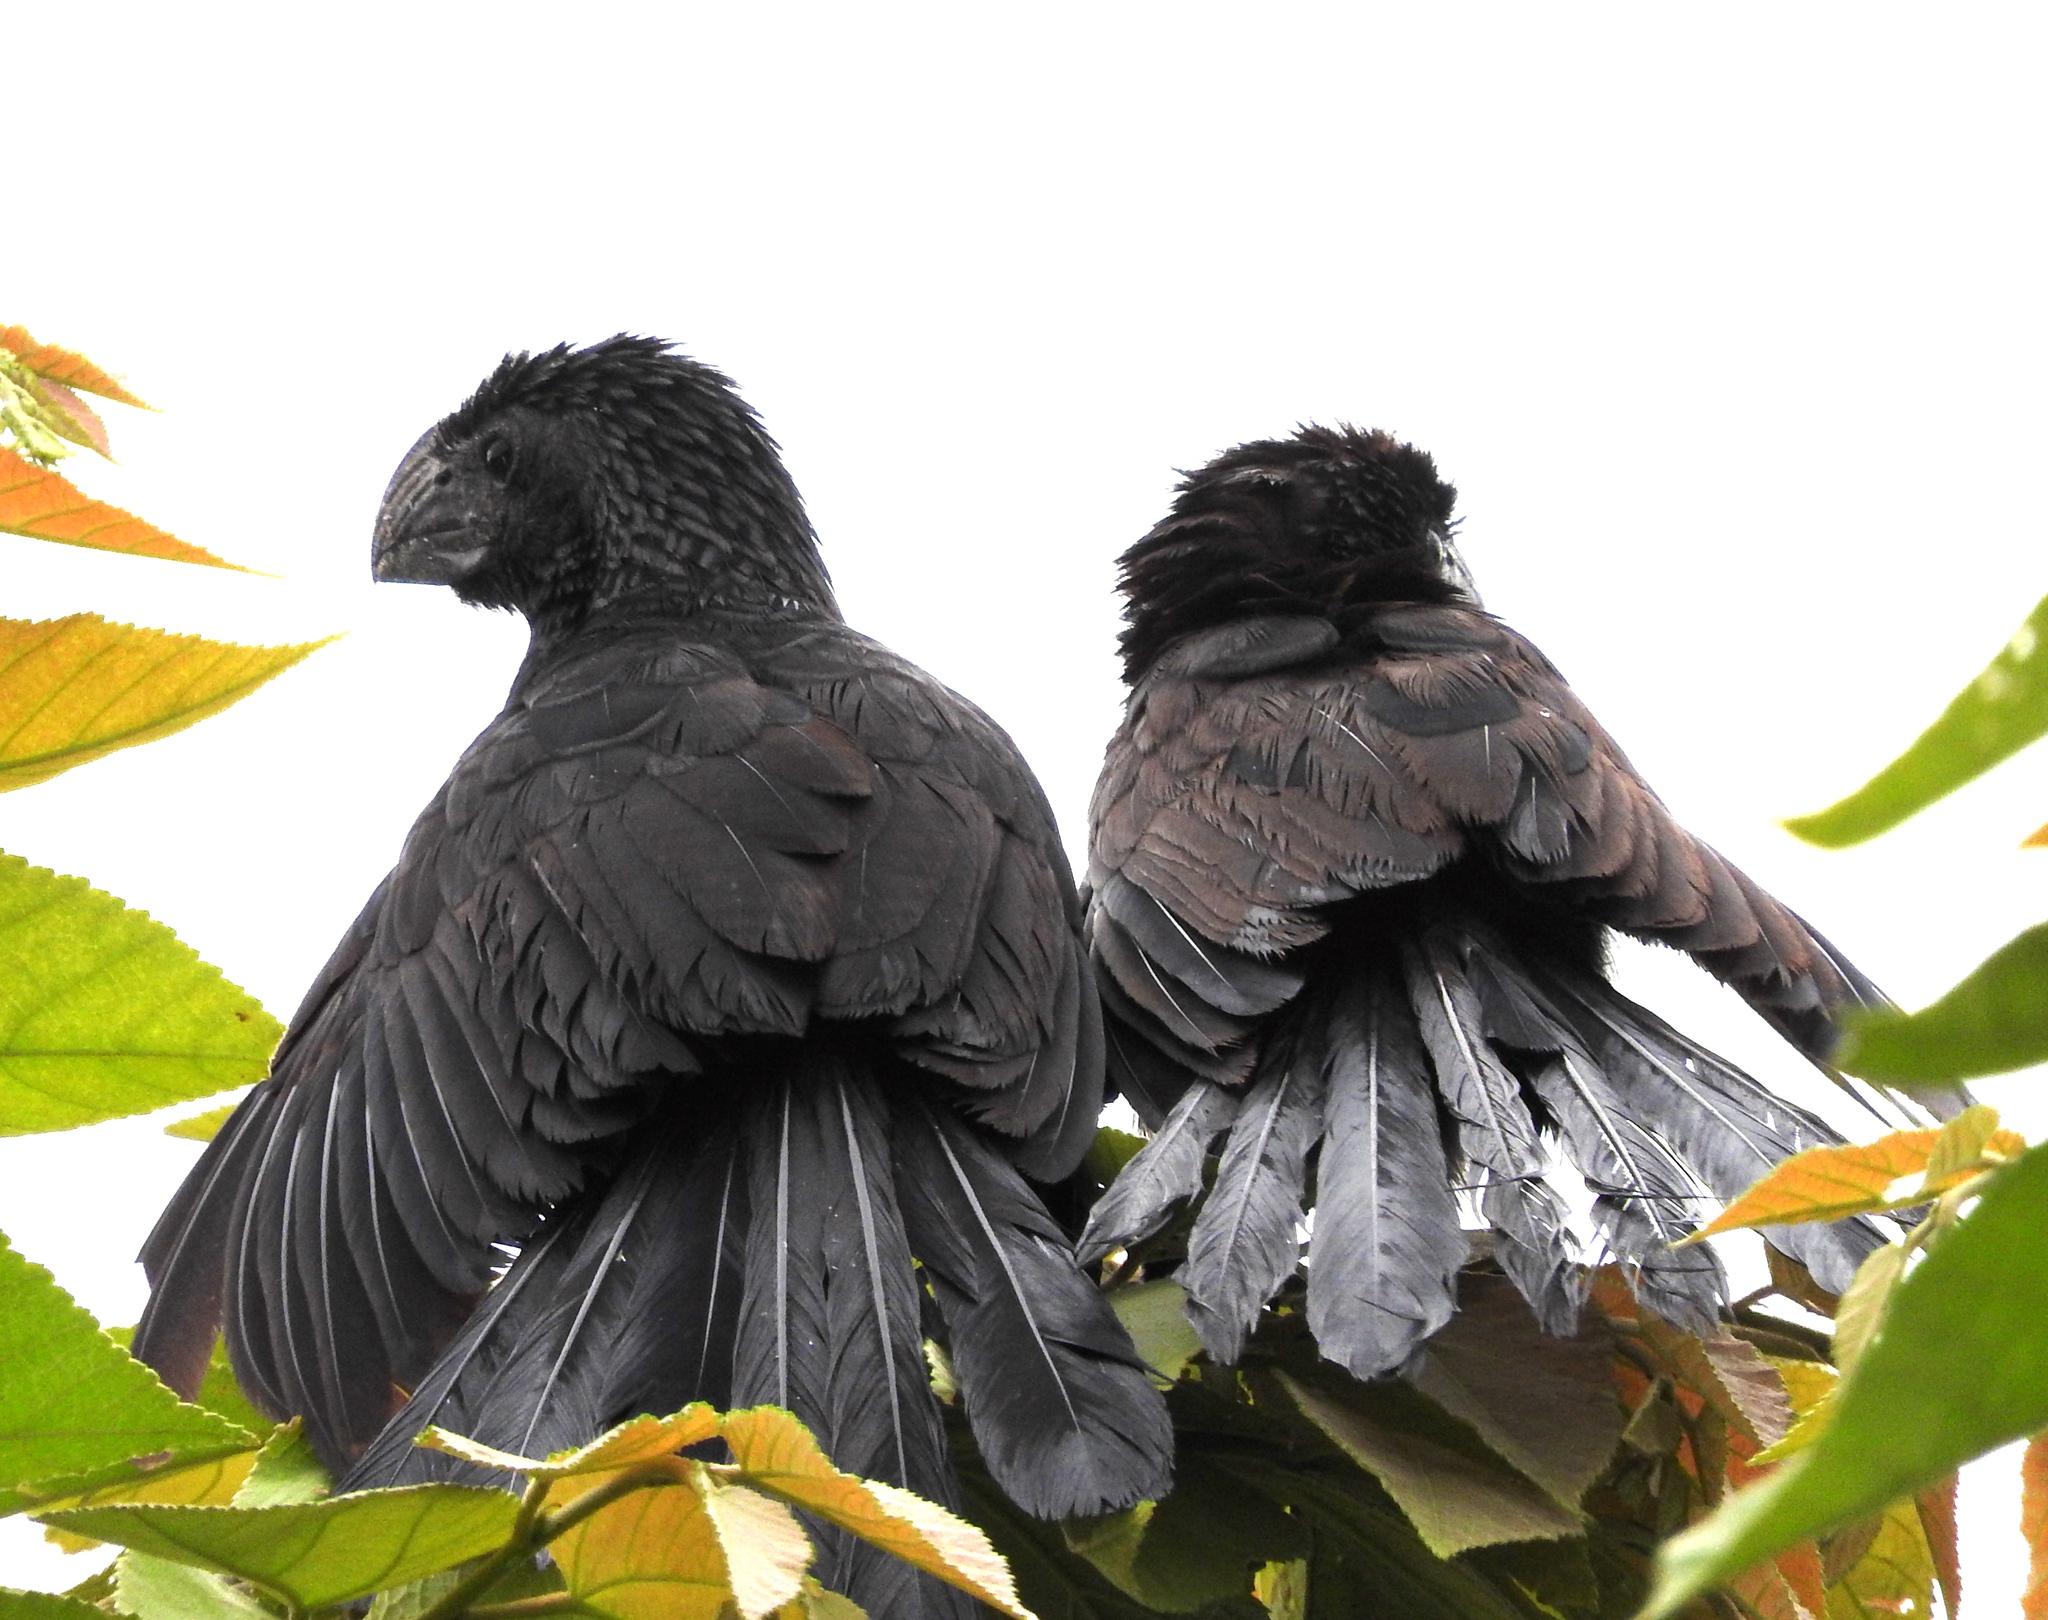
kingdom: Animalia
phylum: Chordata
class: Aves
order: Cuculiformes
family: Cuculidae
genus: Crotophaga
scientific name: Crotophaga sulcirostris
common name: Groove-billed ani
